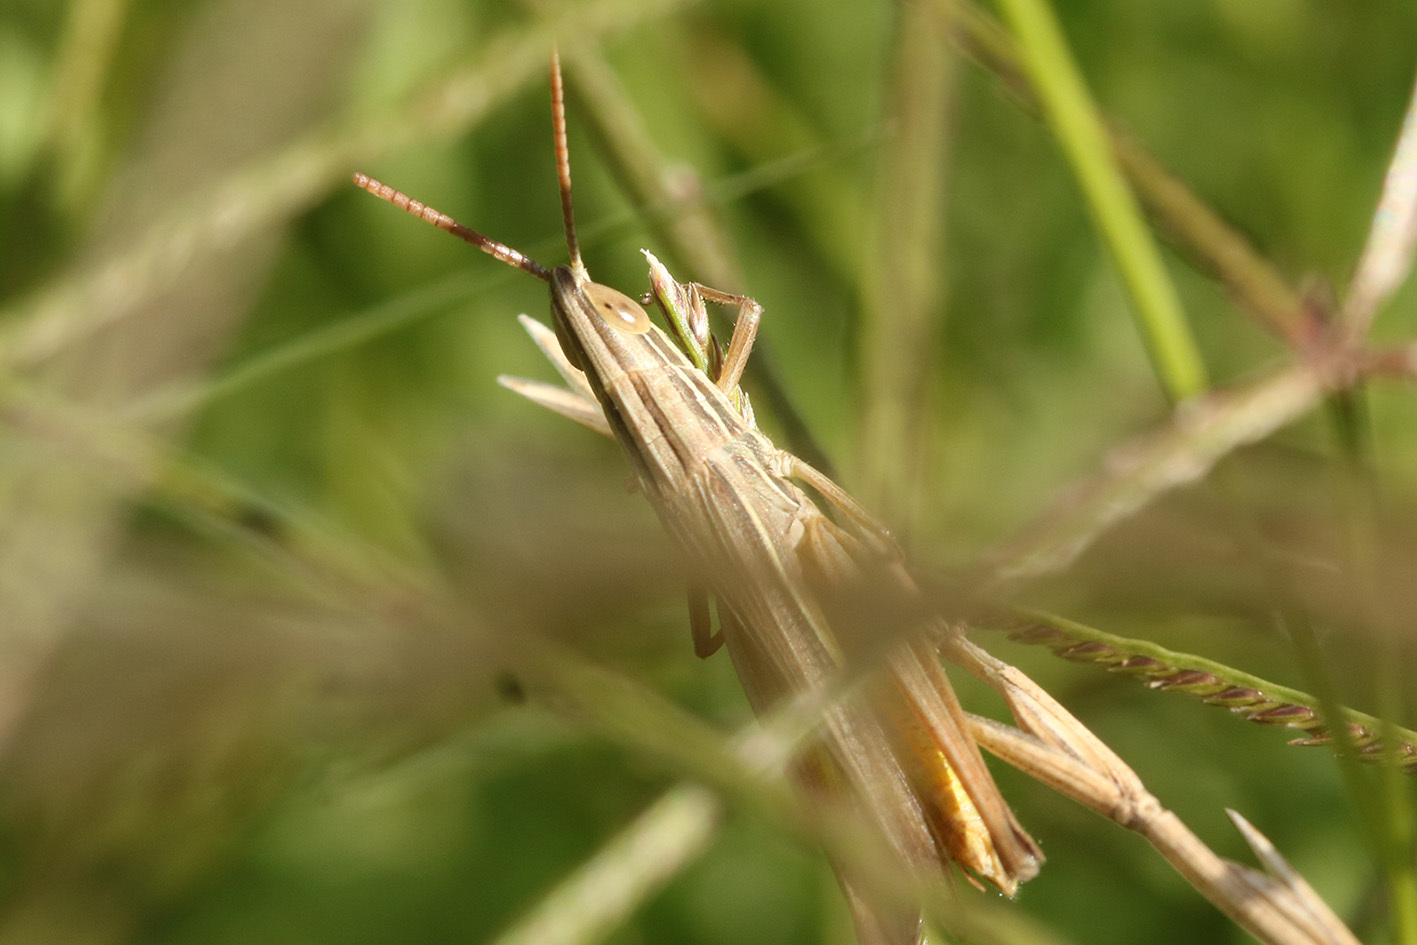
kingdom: Animalia
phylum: Arthropoda
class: Insecta
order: Orthoptera
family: Acrididae
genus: Sinipta
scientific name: Sinipta dalmani
